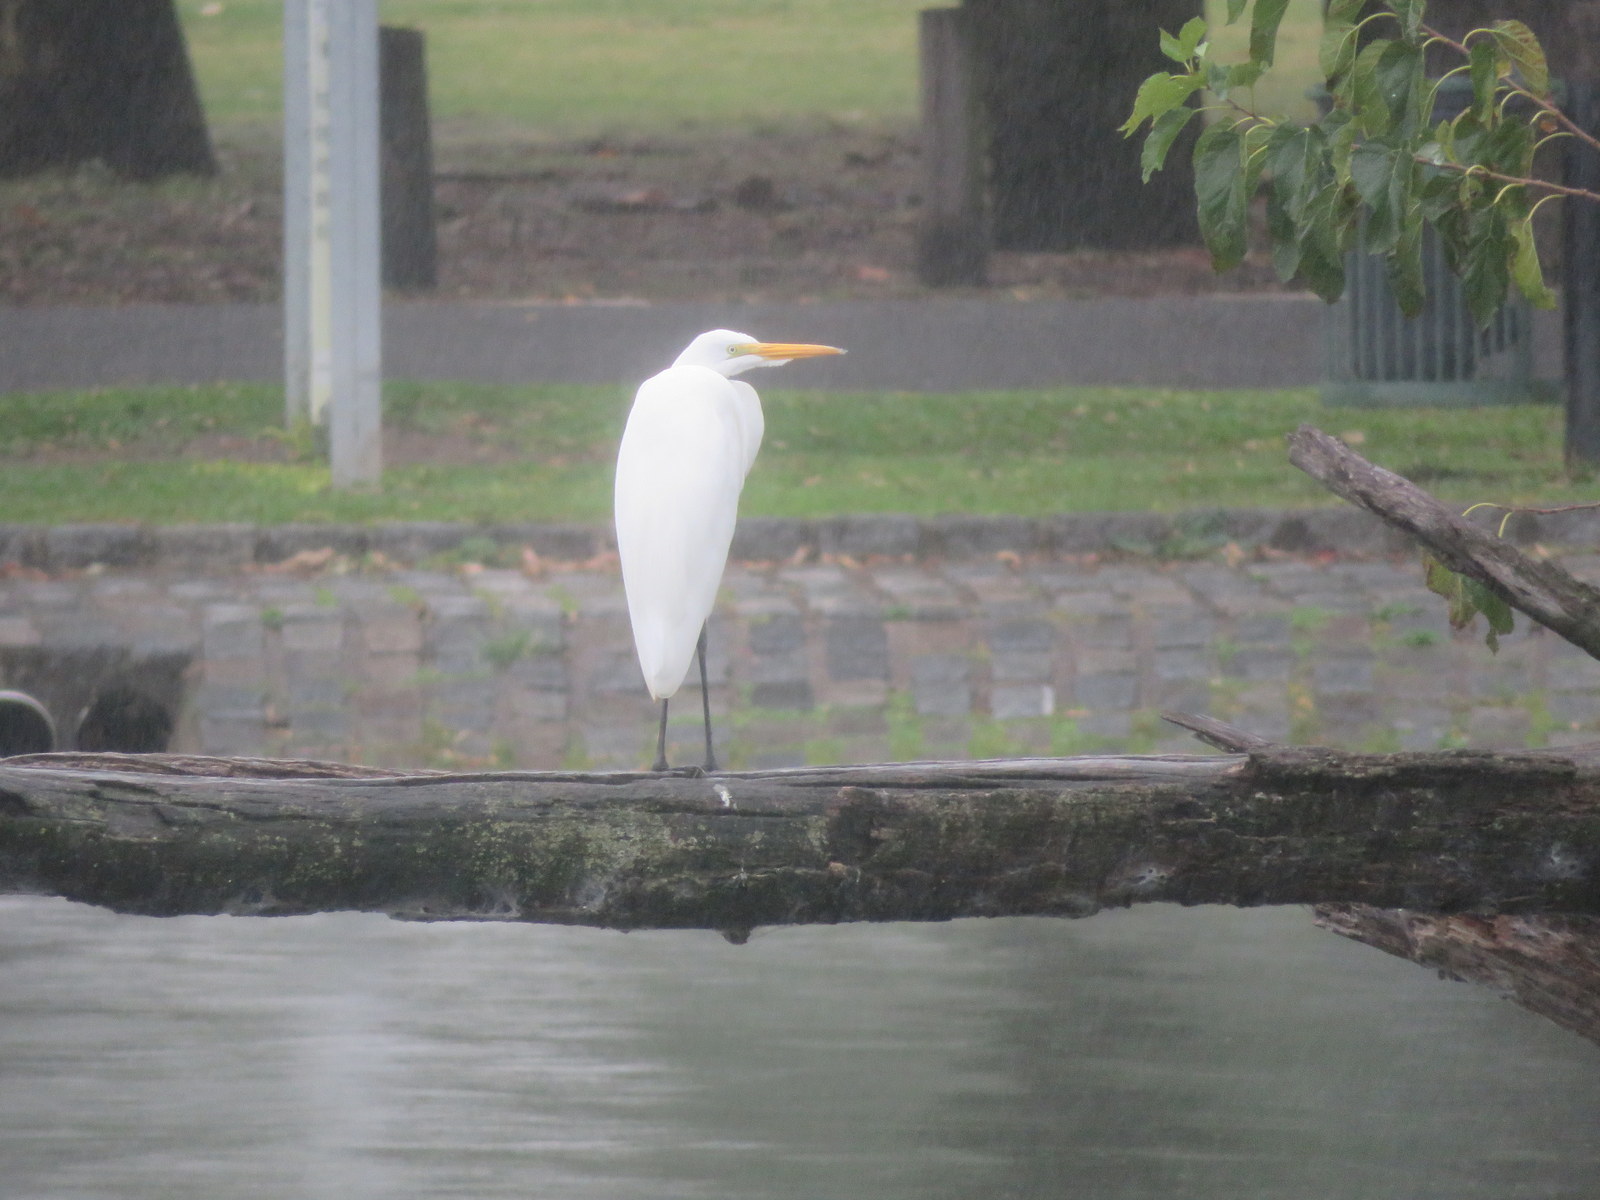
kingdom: Animalia
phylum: Chordata
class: Aves
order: Pelecaniformes
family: Ardeidae
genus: Ardea
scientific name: Ardea alba
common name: Great egret
